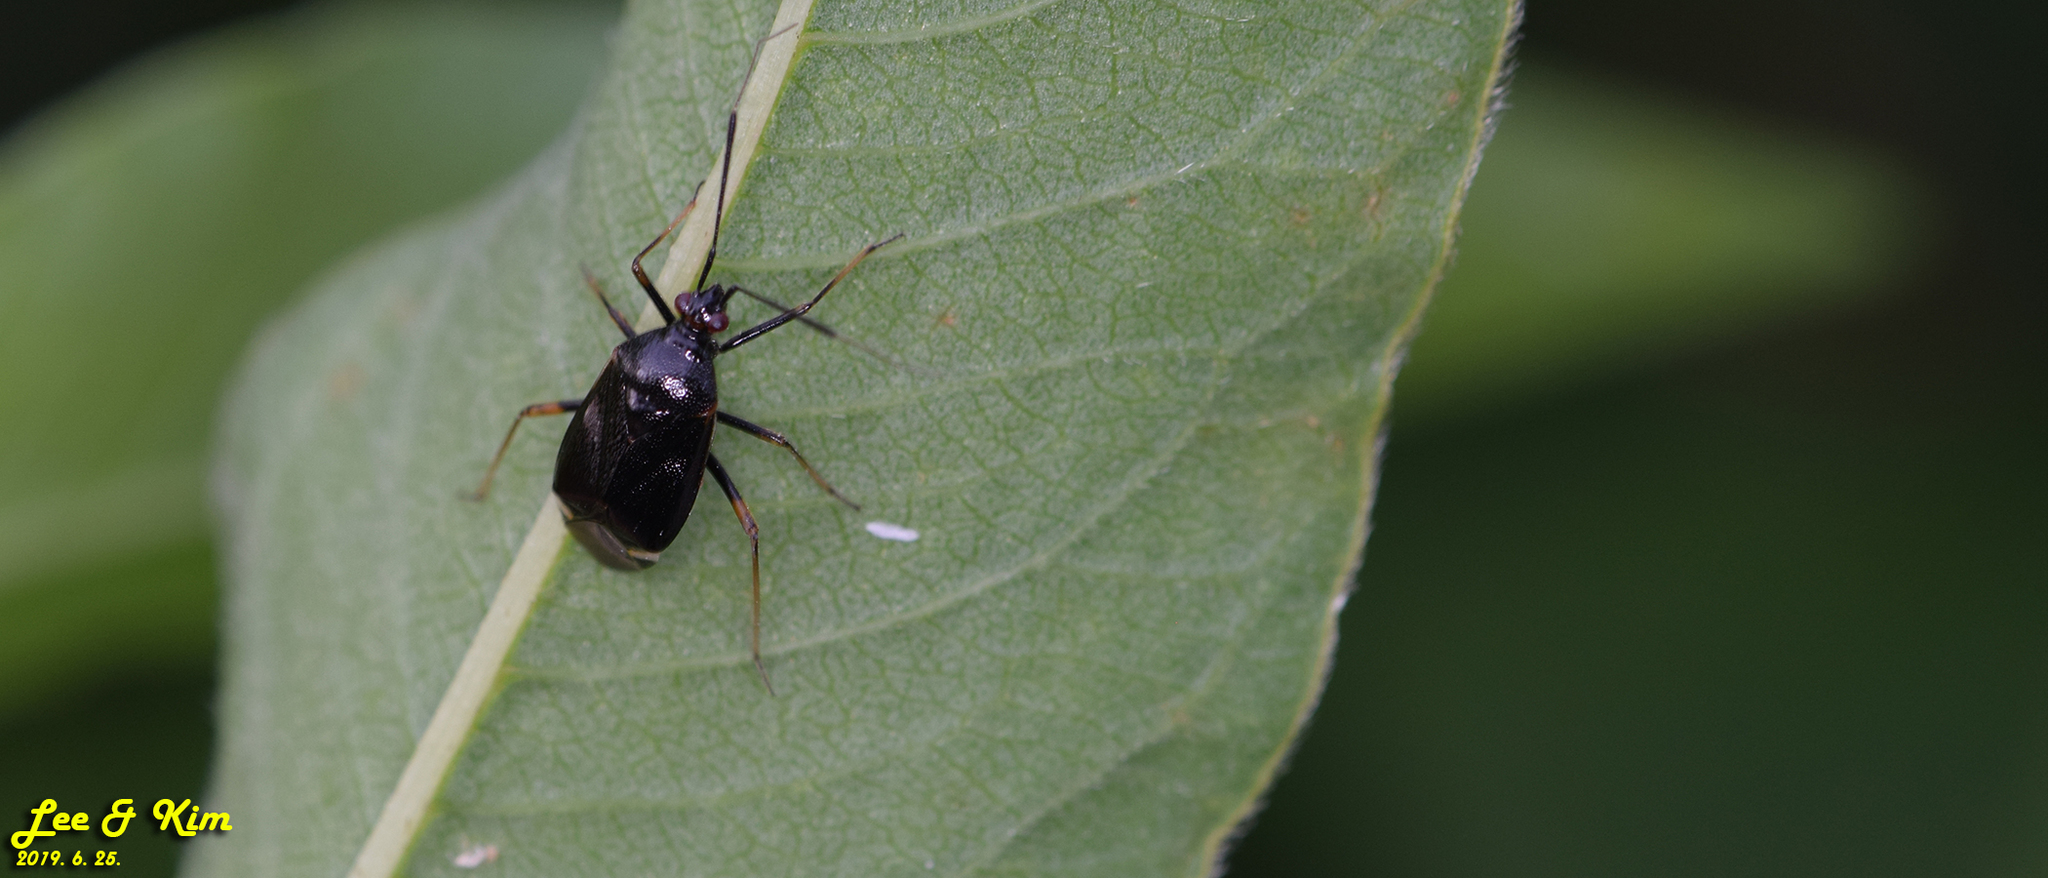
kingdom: Animalia
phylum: Arthropoda
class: Insecta
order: Hemiptera
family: Miridae
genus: Deraeocoris
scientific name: Deraeocoris ater
